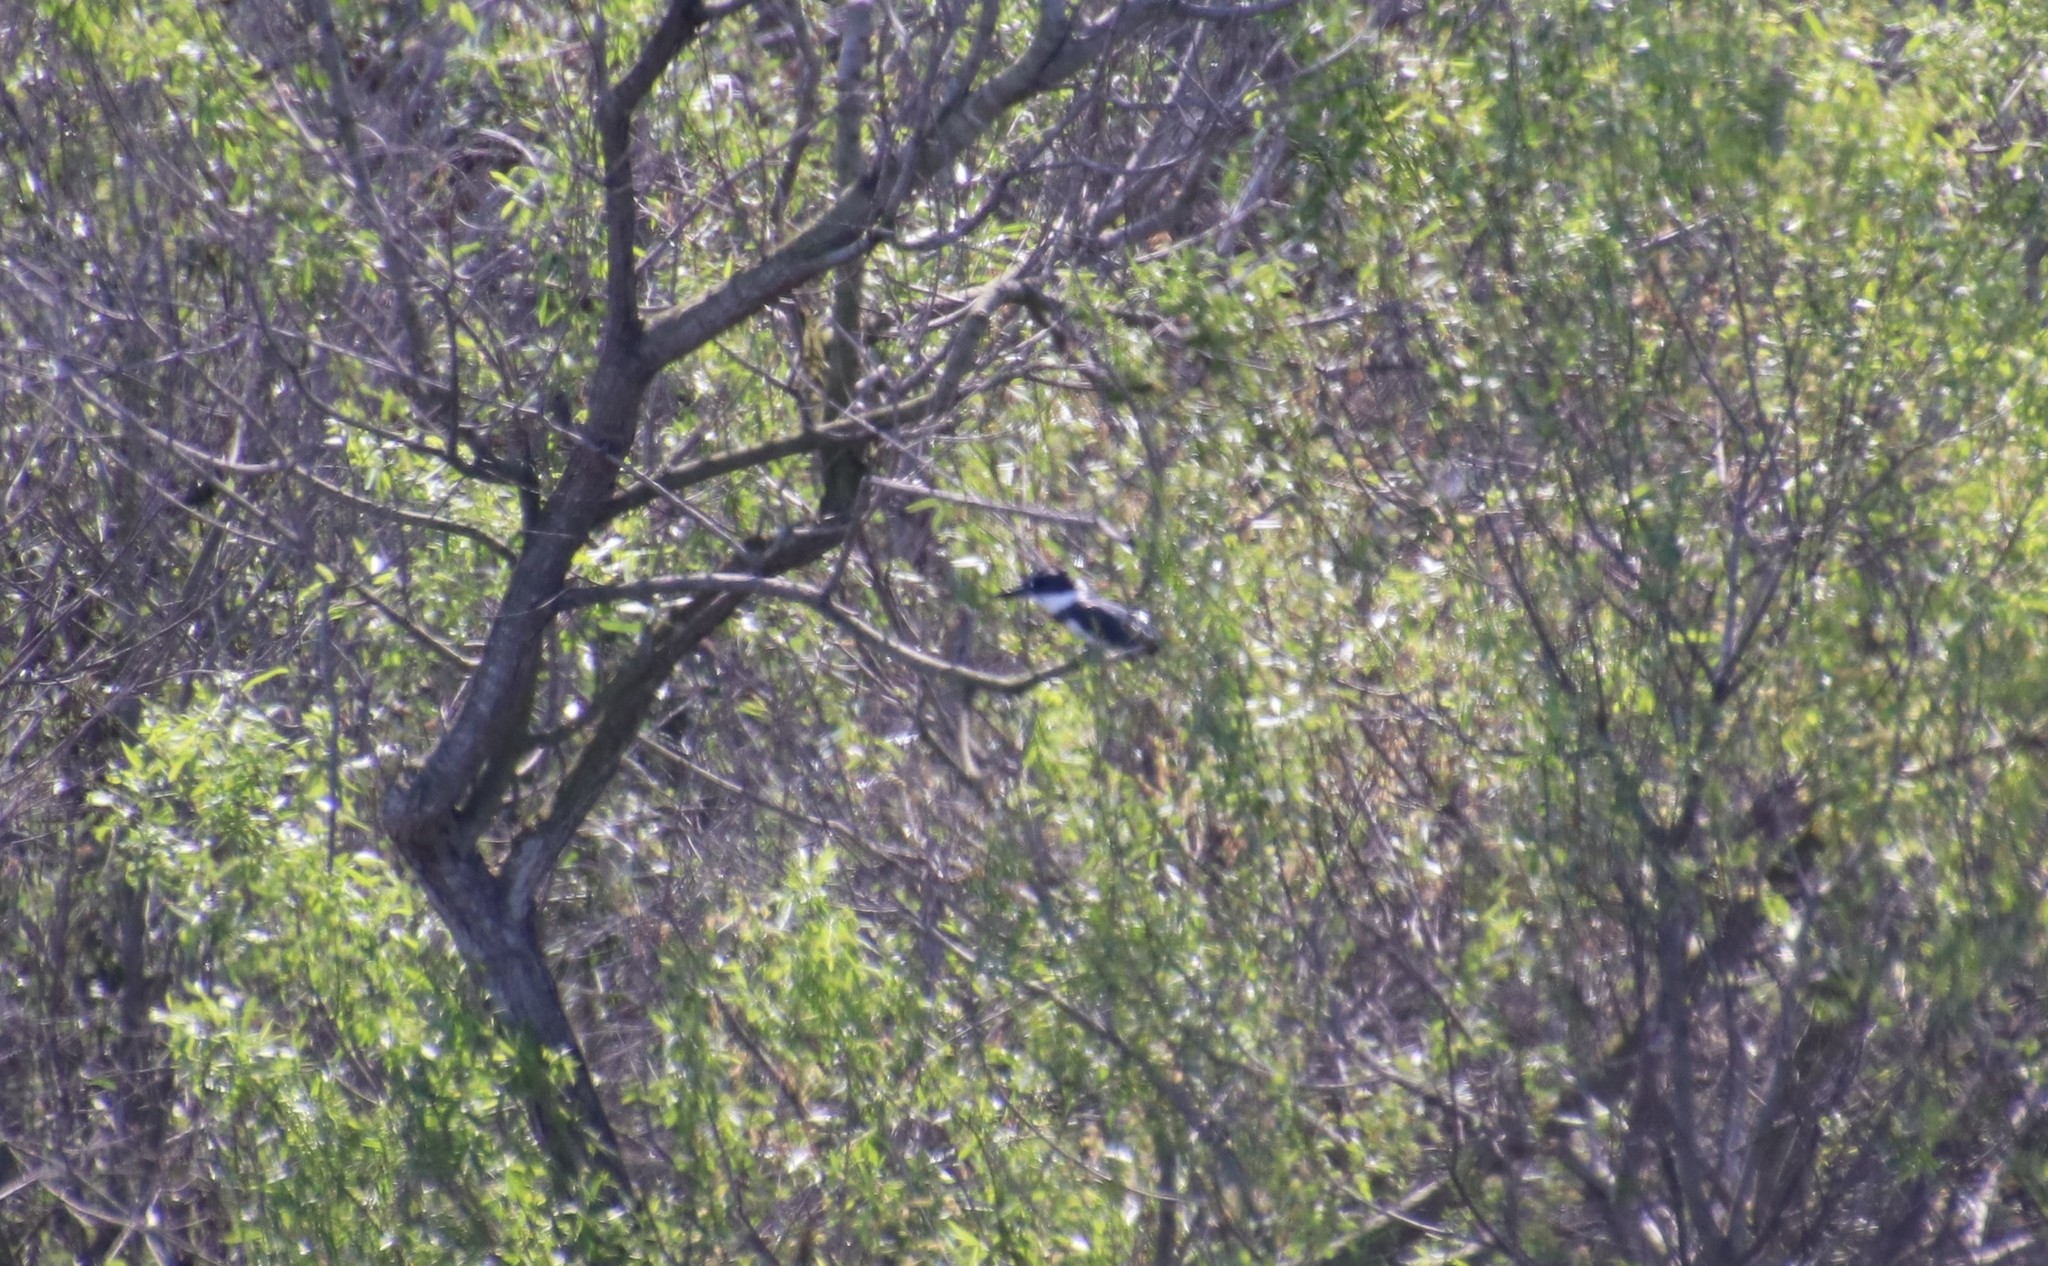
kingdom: Animalia
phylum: Chordata
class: Aves
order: Coraciiformes
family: Alcedinidae
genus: Megaceryle
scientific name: Megaceryle alcyon
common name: Belted kingfisher
